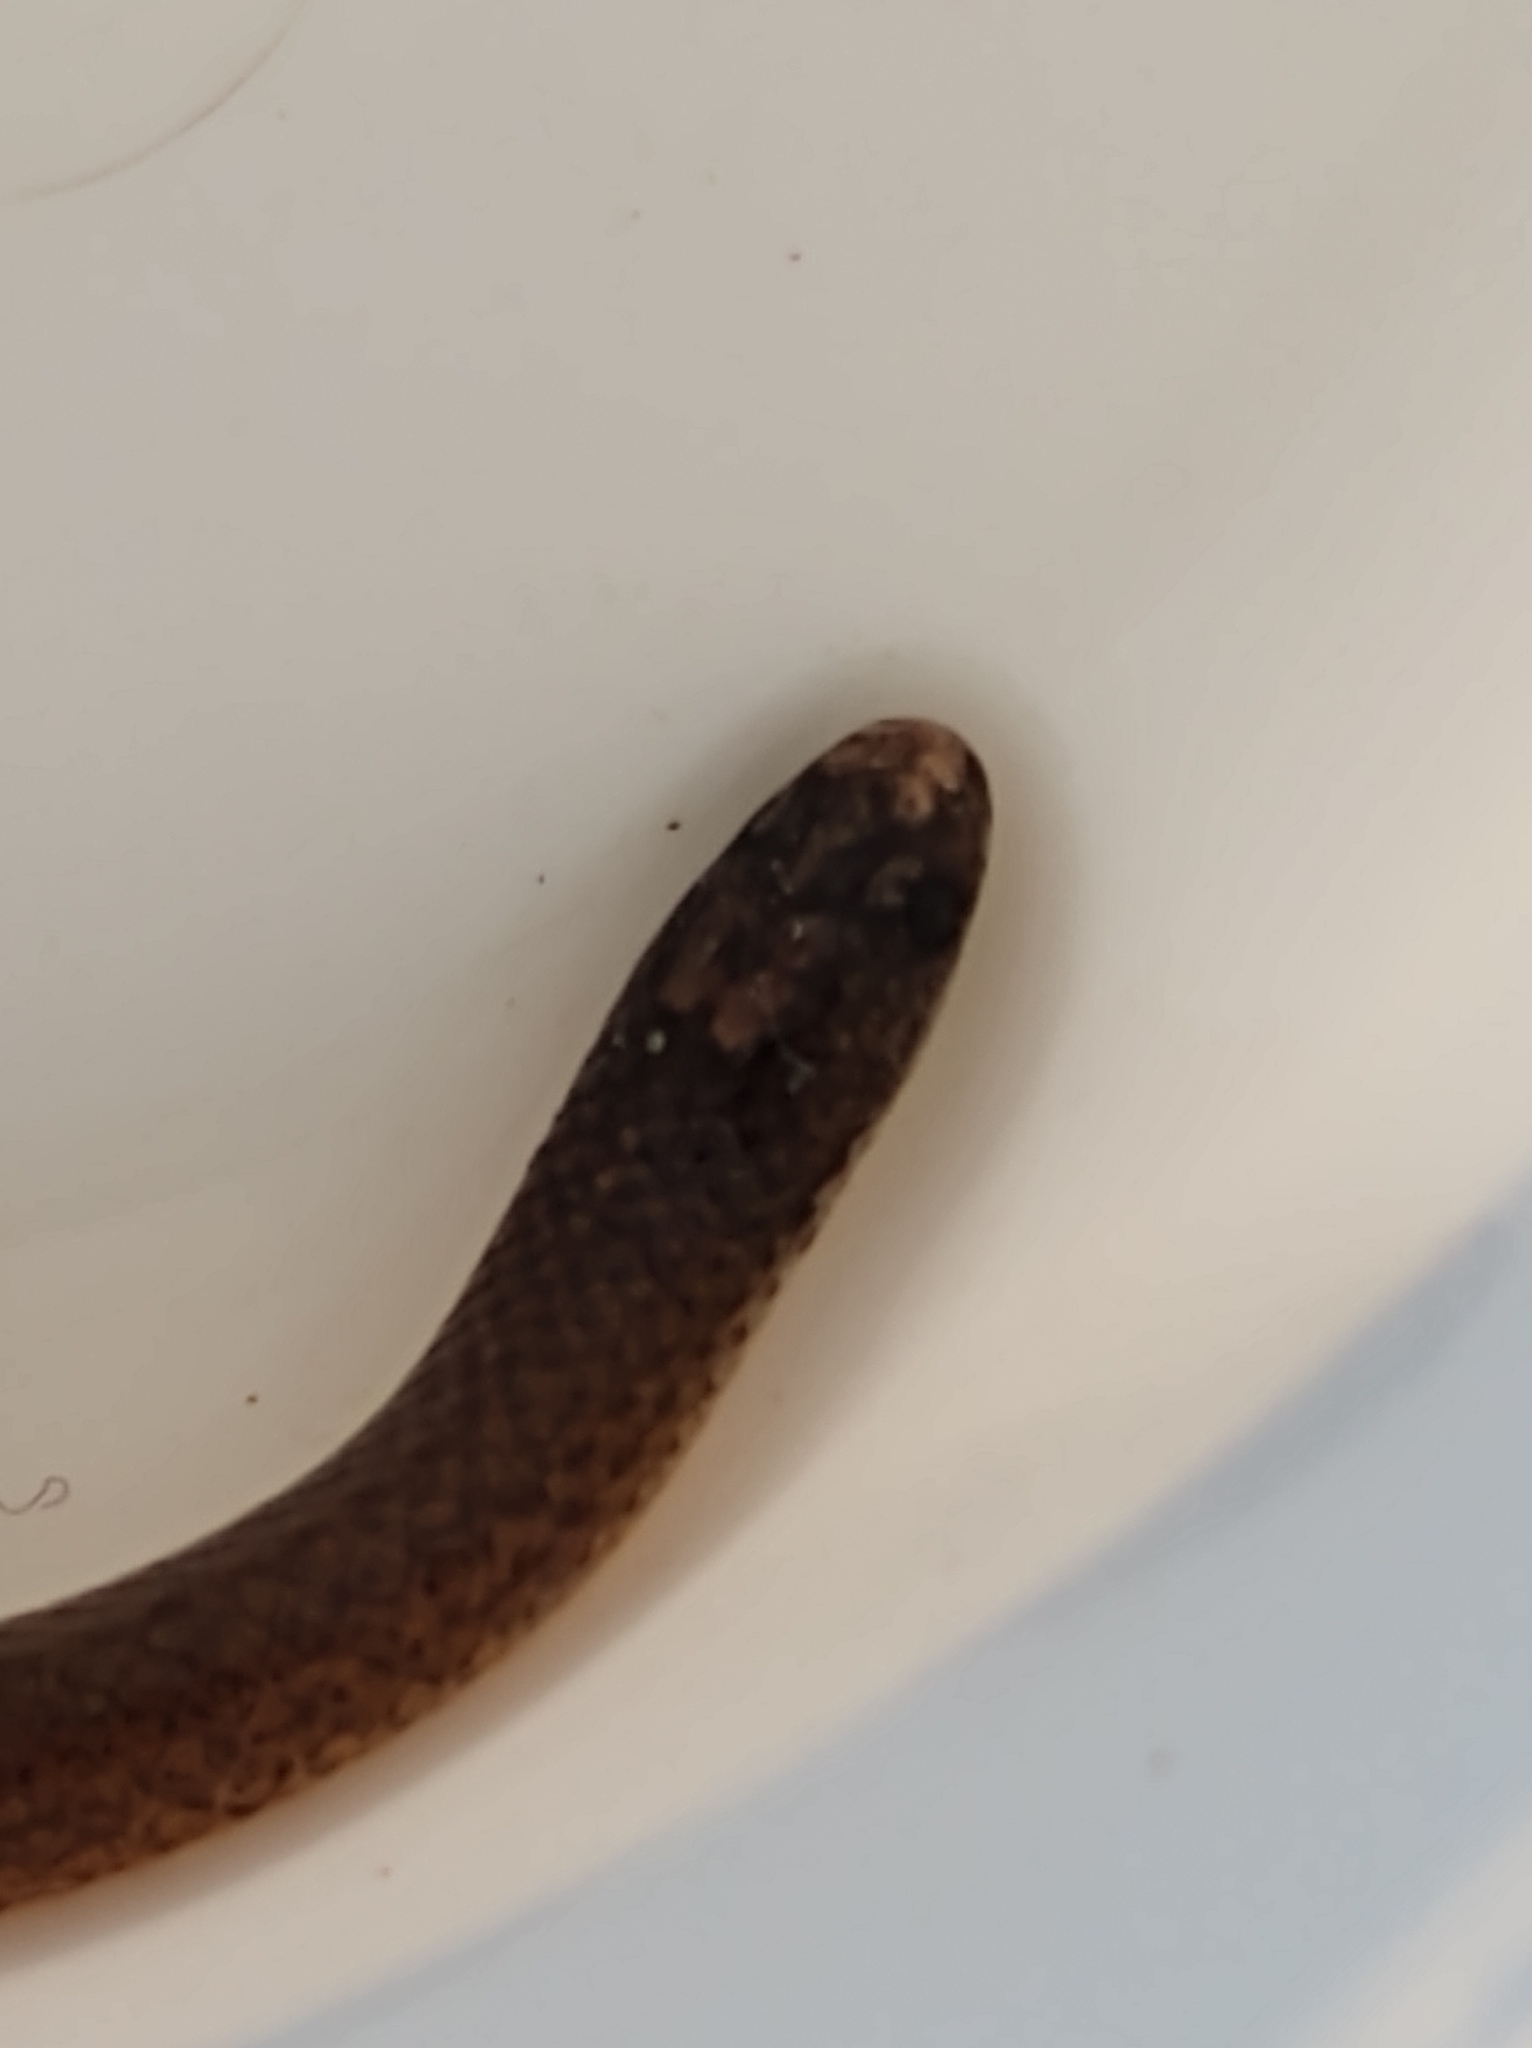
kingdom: Animalia
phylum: Chordata
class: Squamata
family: Colubridae
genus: Tantillita
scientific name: Tantillita canula
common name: Yucatecan dwarf short-tail snake
